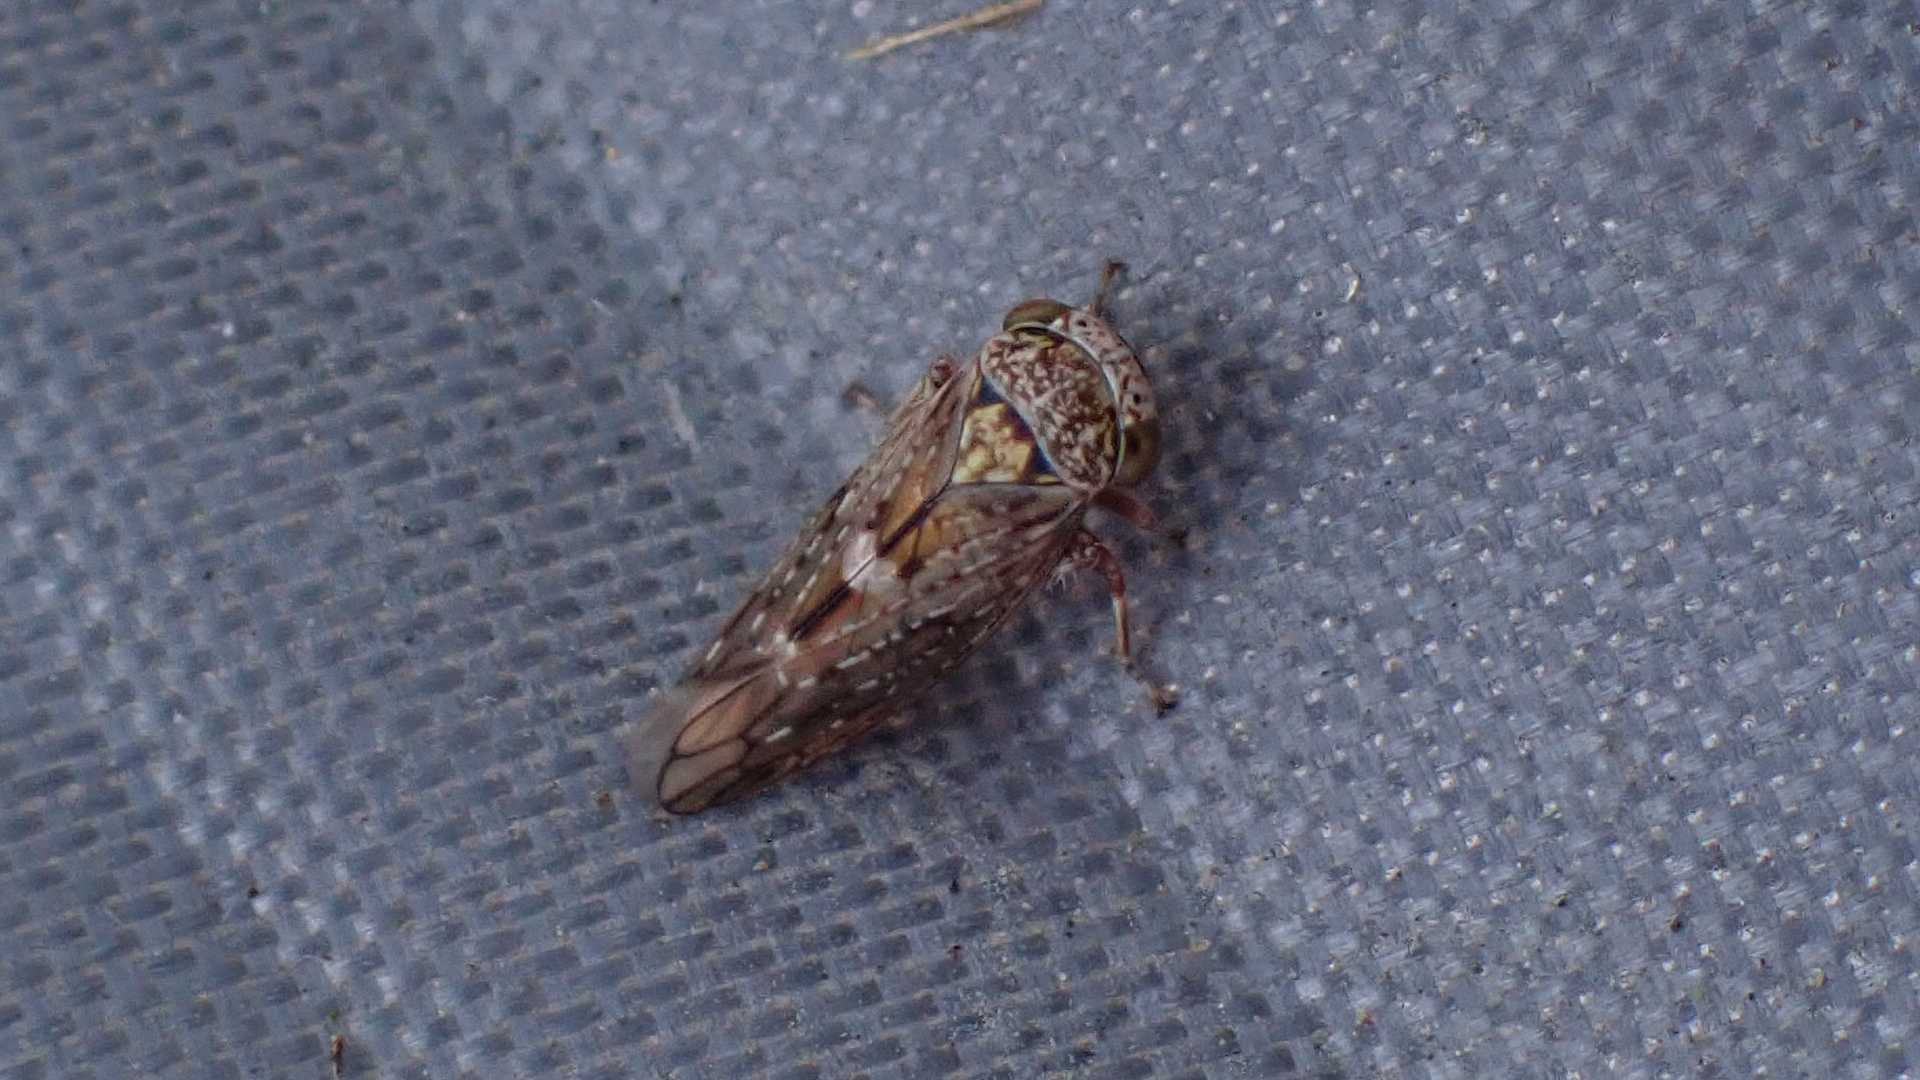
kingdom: Animalia
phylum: Arthropoda
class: Insecta
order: Hemiptera
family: Cicadellidae
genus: Acericerus
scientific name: Acericerus vittifrons
